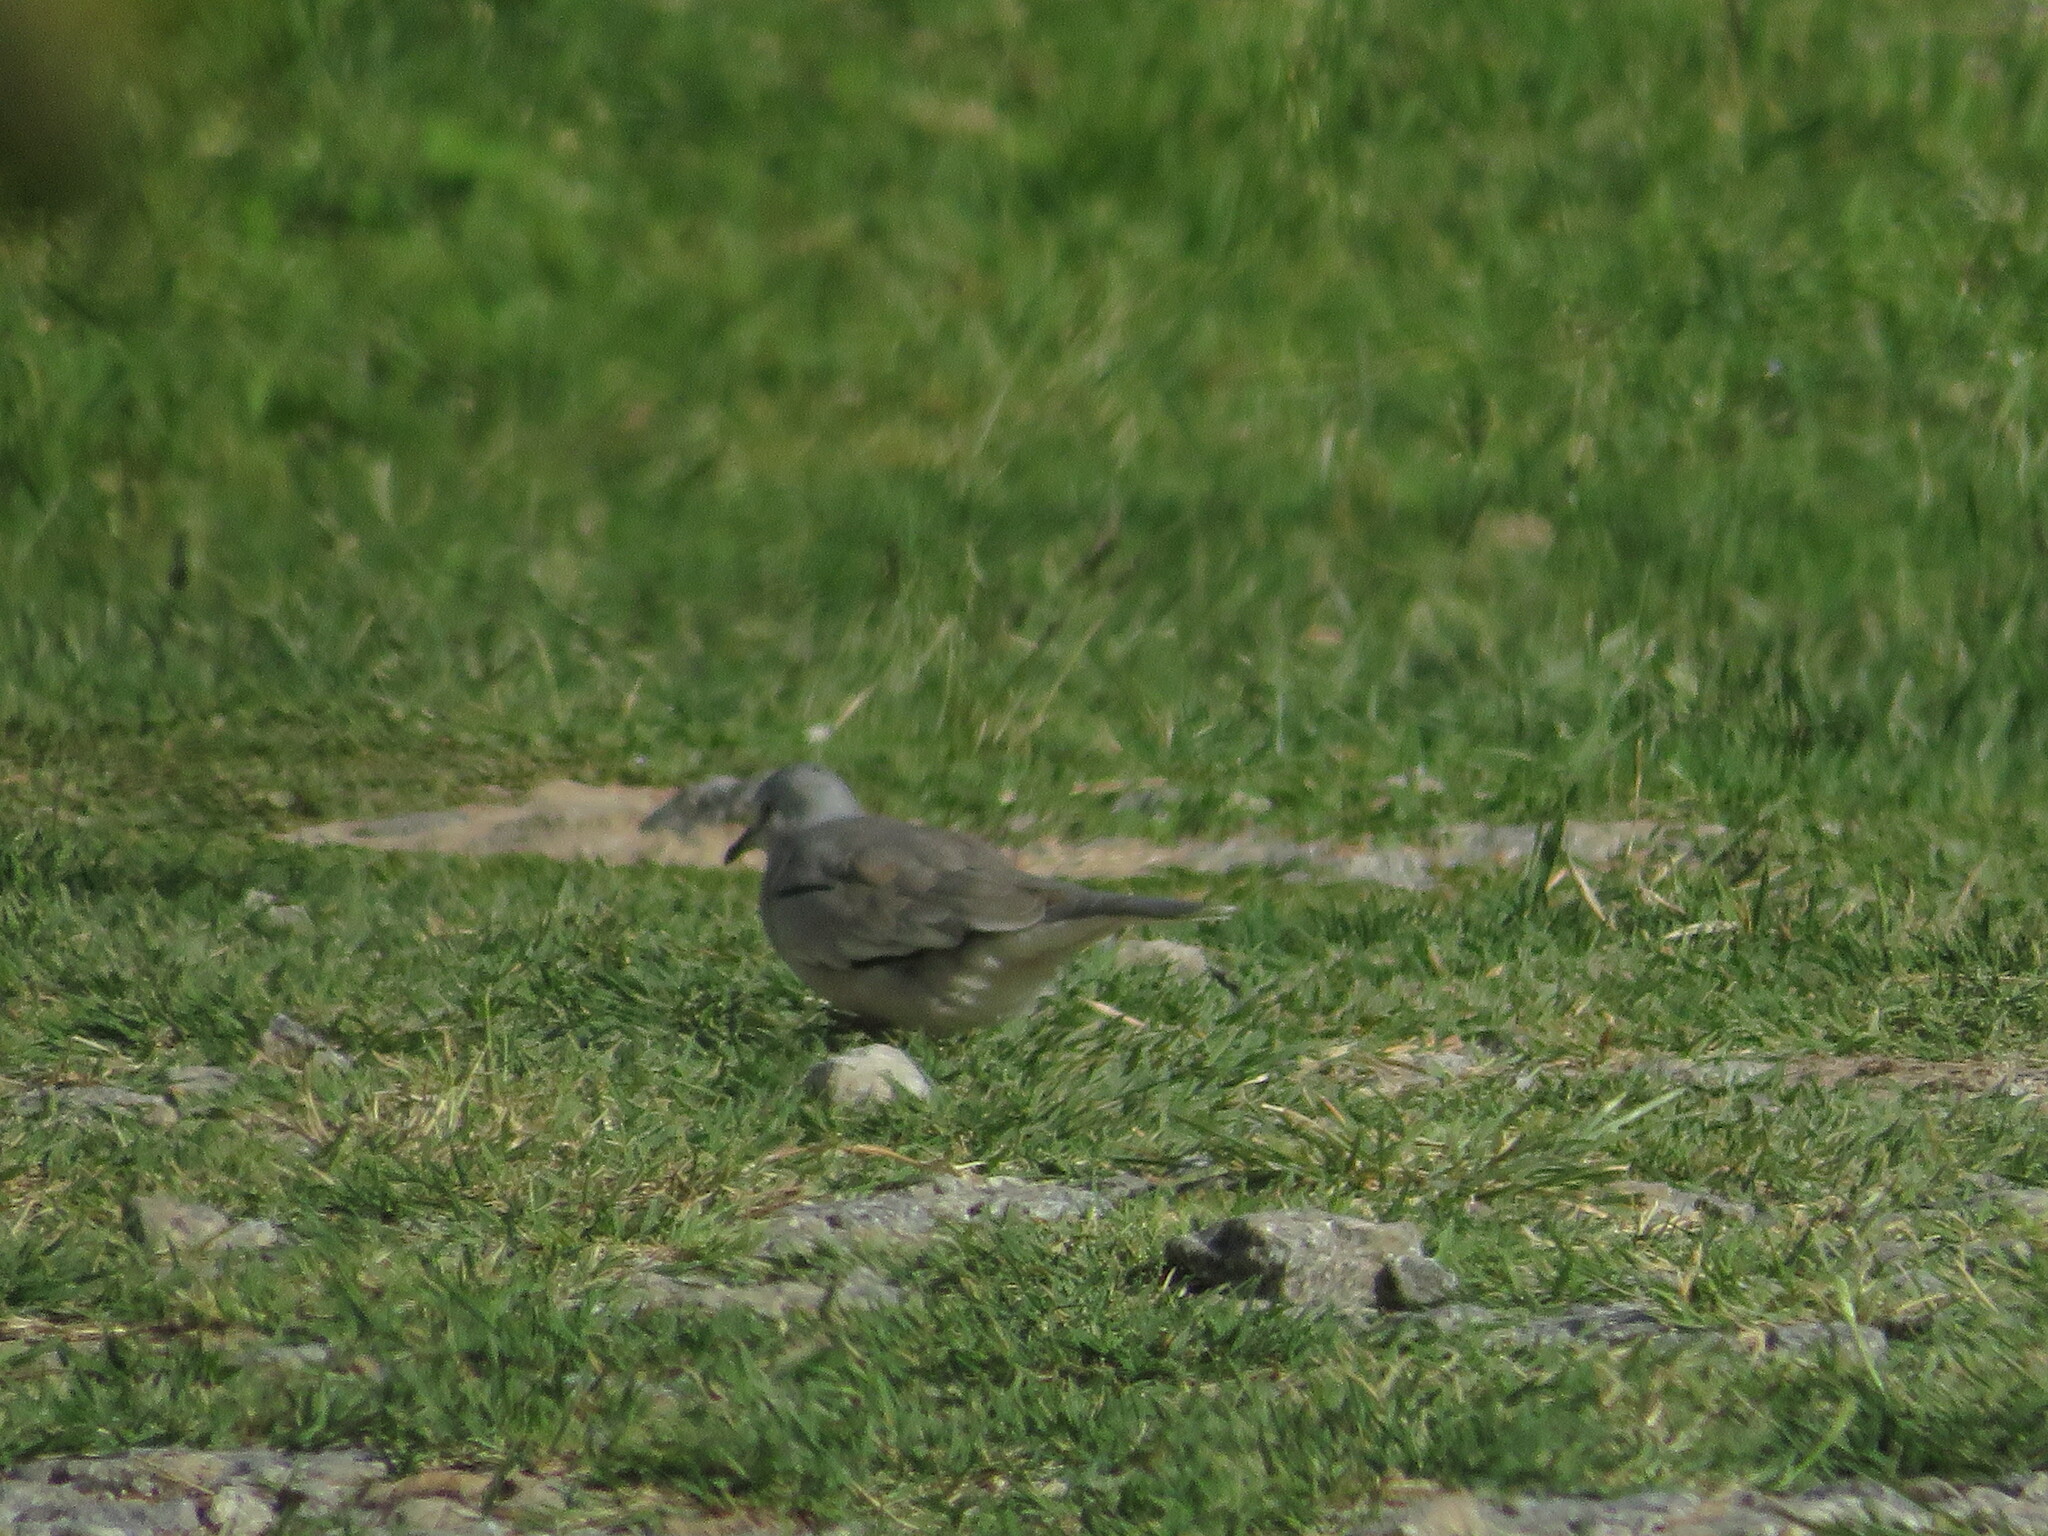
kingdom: Animalia
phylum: Chordata
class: Aves
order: Columbiformes
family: Columbidae
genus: Columbina
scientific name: Columbina picui
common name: Picui ground dove
